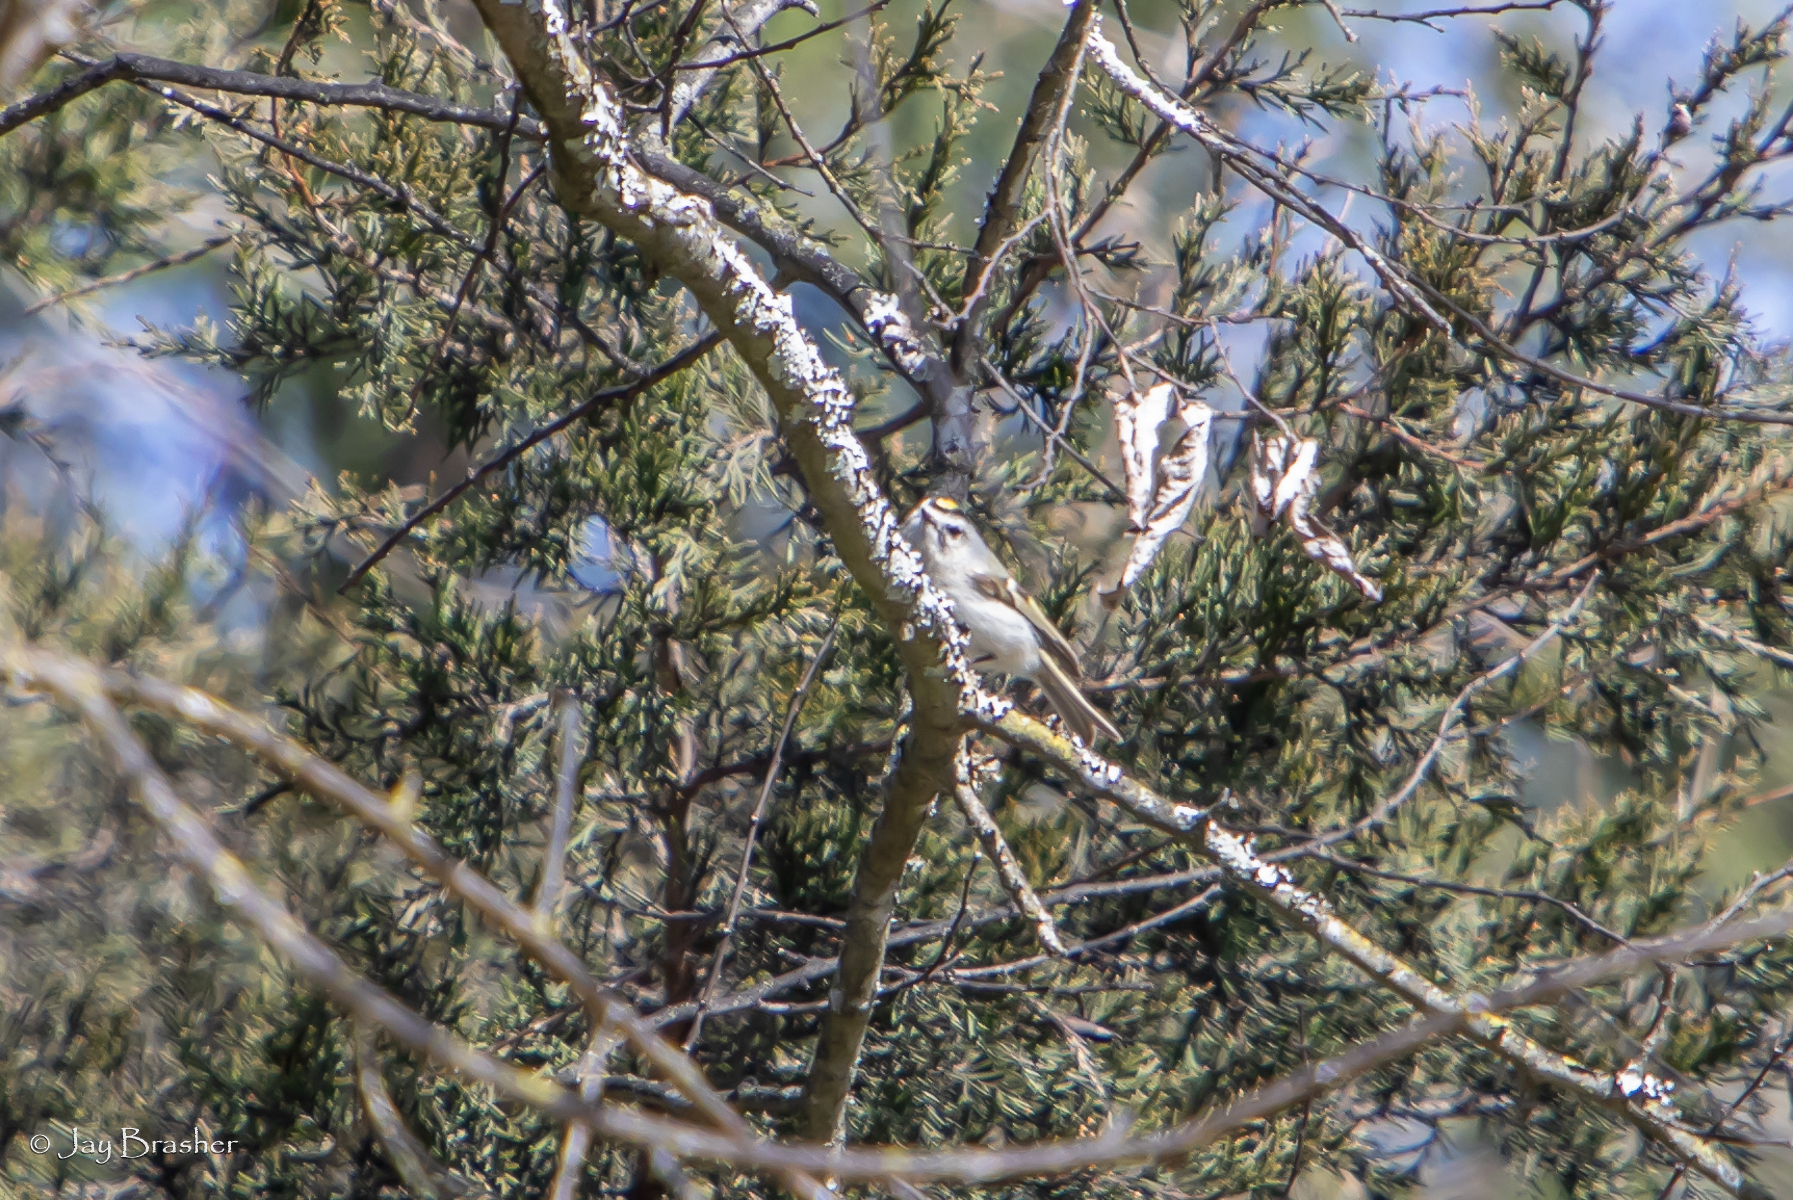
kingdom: Animalia
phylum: Chordata
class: Aves
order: Passeriformes
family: Regulidae
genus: Regulus
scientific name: Regulus satrapa
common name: Golden-crowned kinglet
